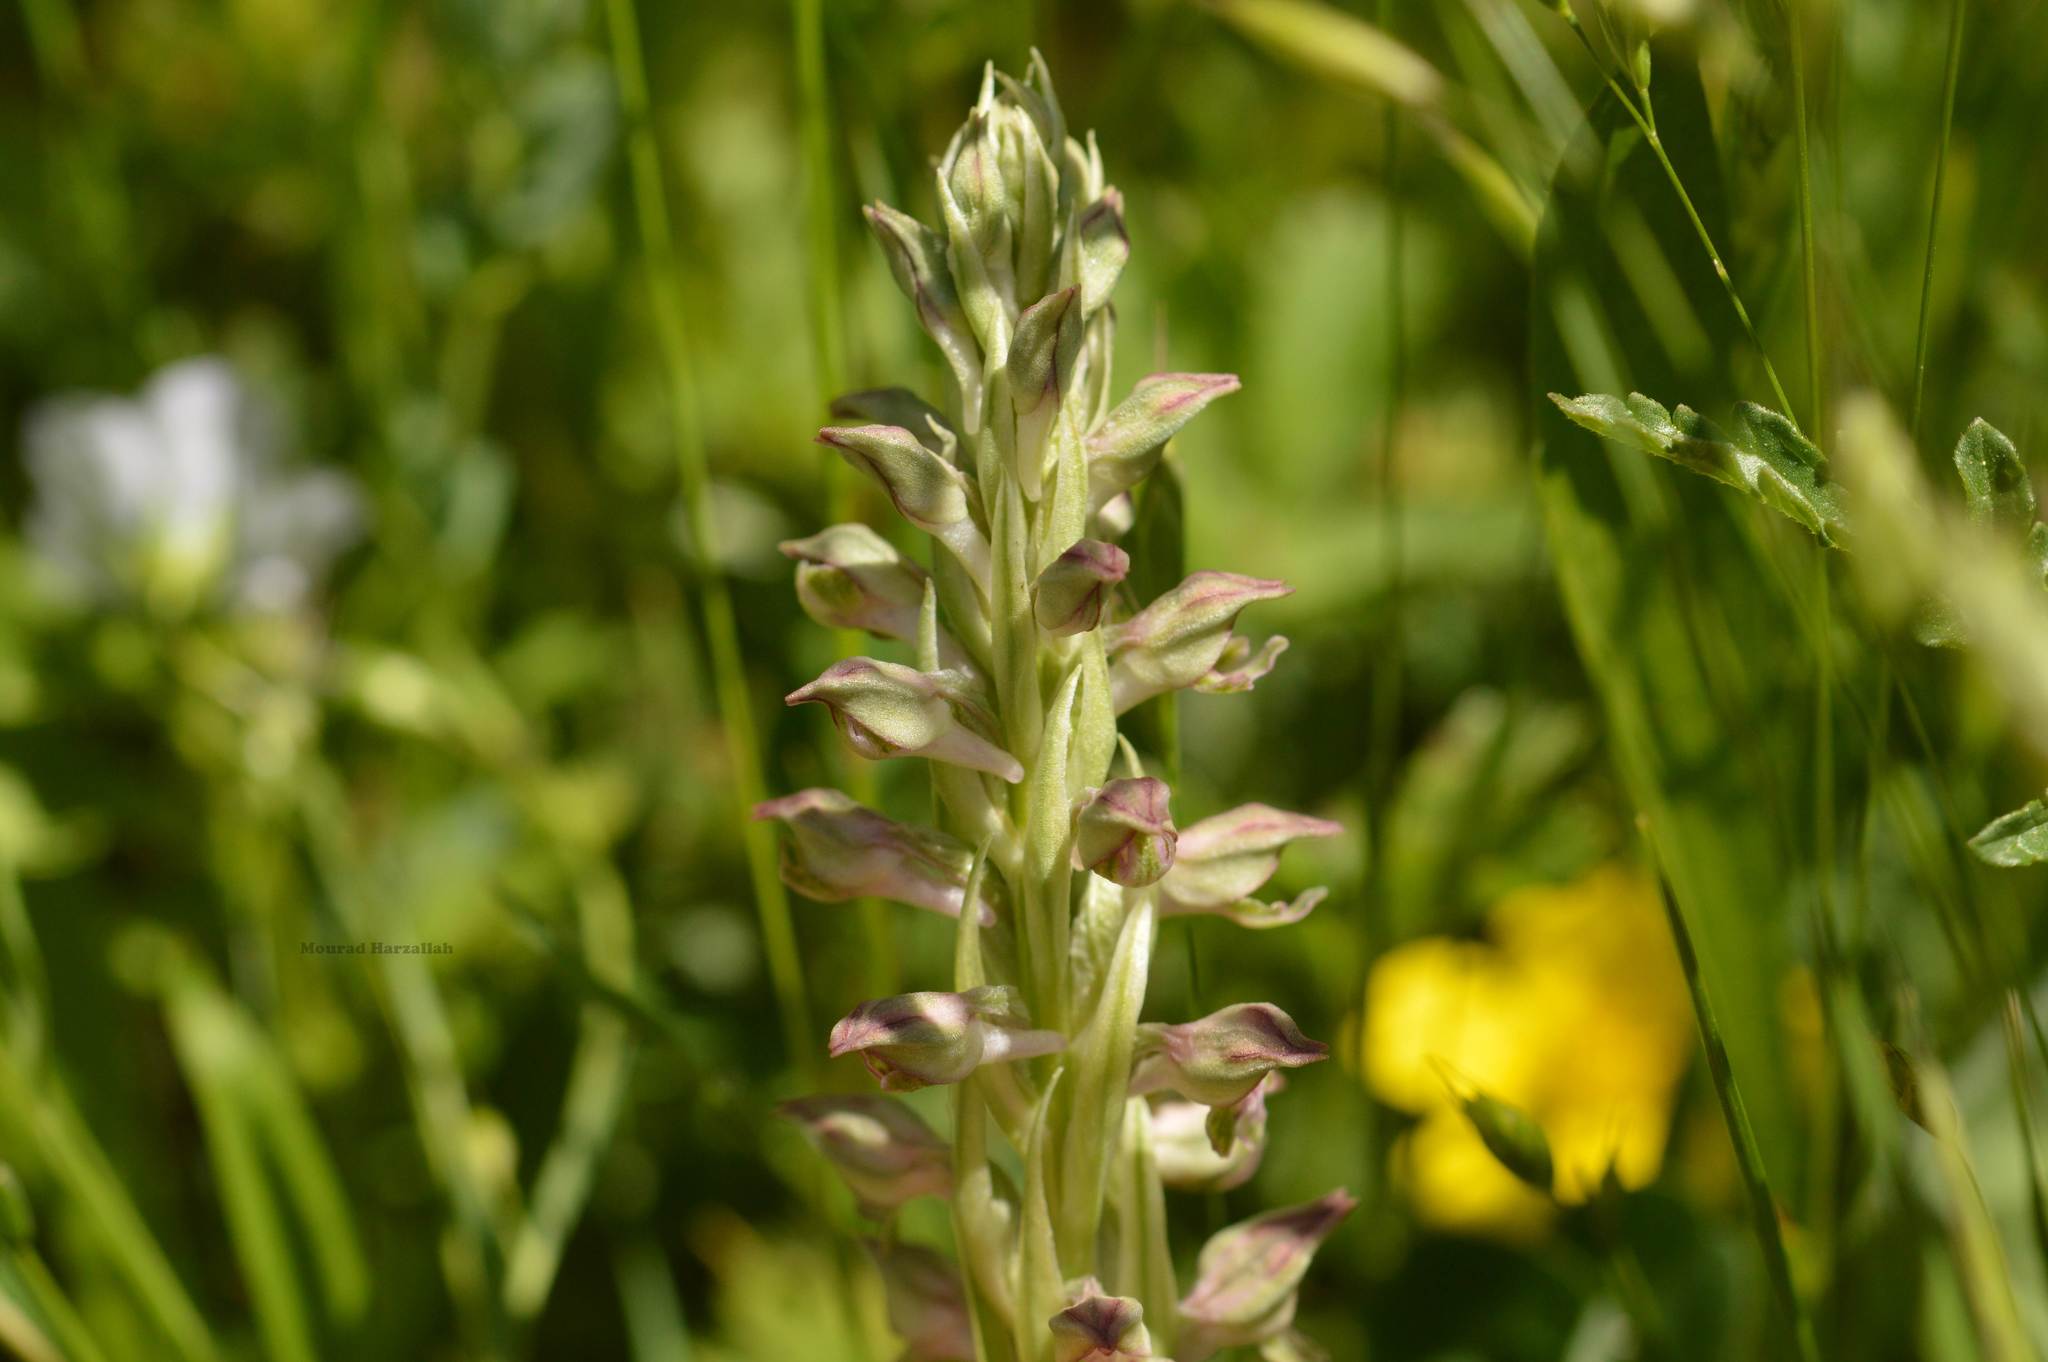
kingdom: Plantae
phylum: Tracheophyta
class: Liliopsida
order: Asparagales
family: Orchidaceae
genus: Anacamptis
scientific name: Anacamptis coriophora
